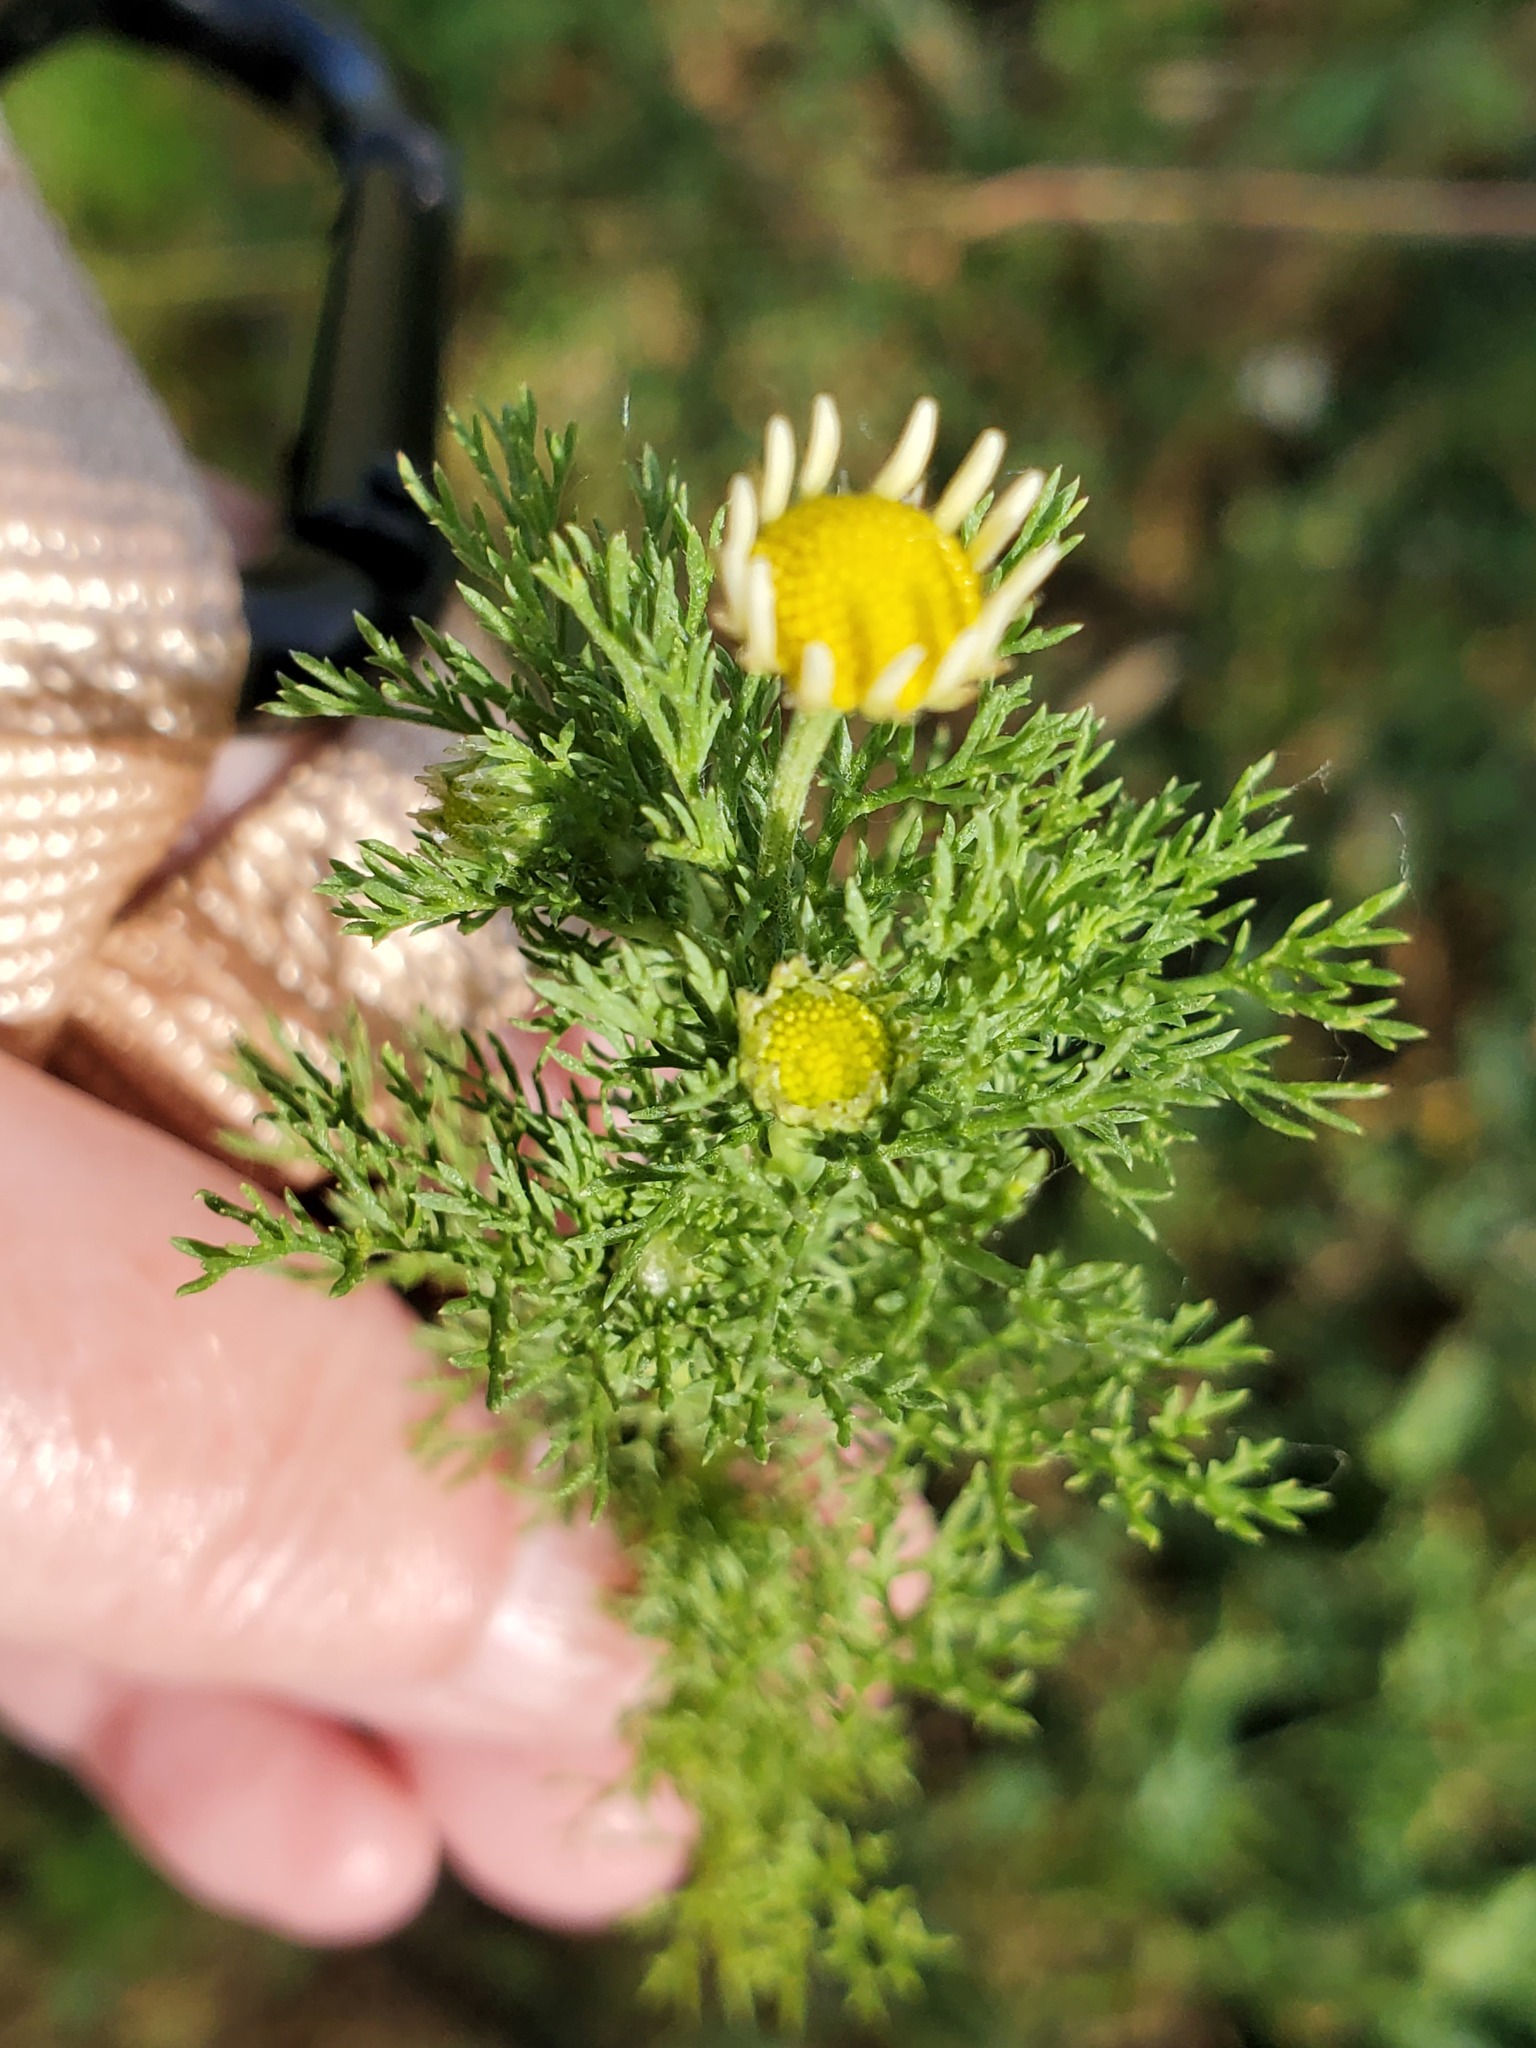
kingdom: Plantae
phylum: Tracheophyta
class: Magnoliopsida
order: Asterales
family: Asteraceae
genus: Anthemis
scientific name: Anthemis cotula
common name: Stinking chamomile
